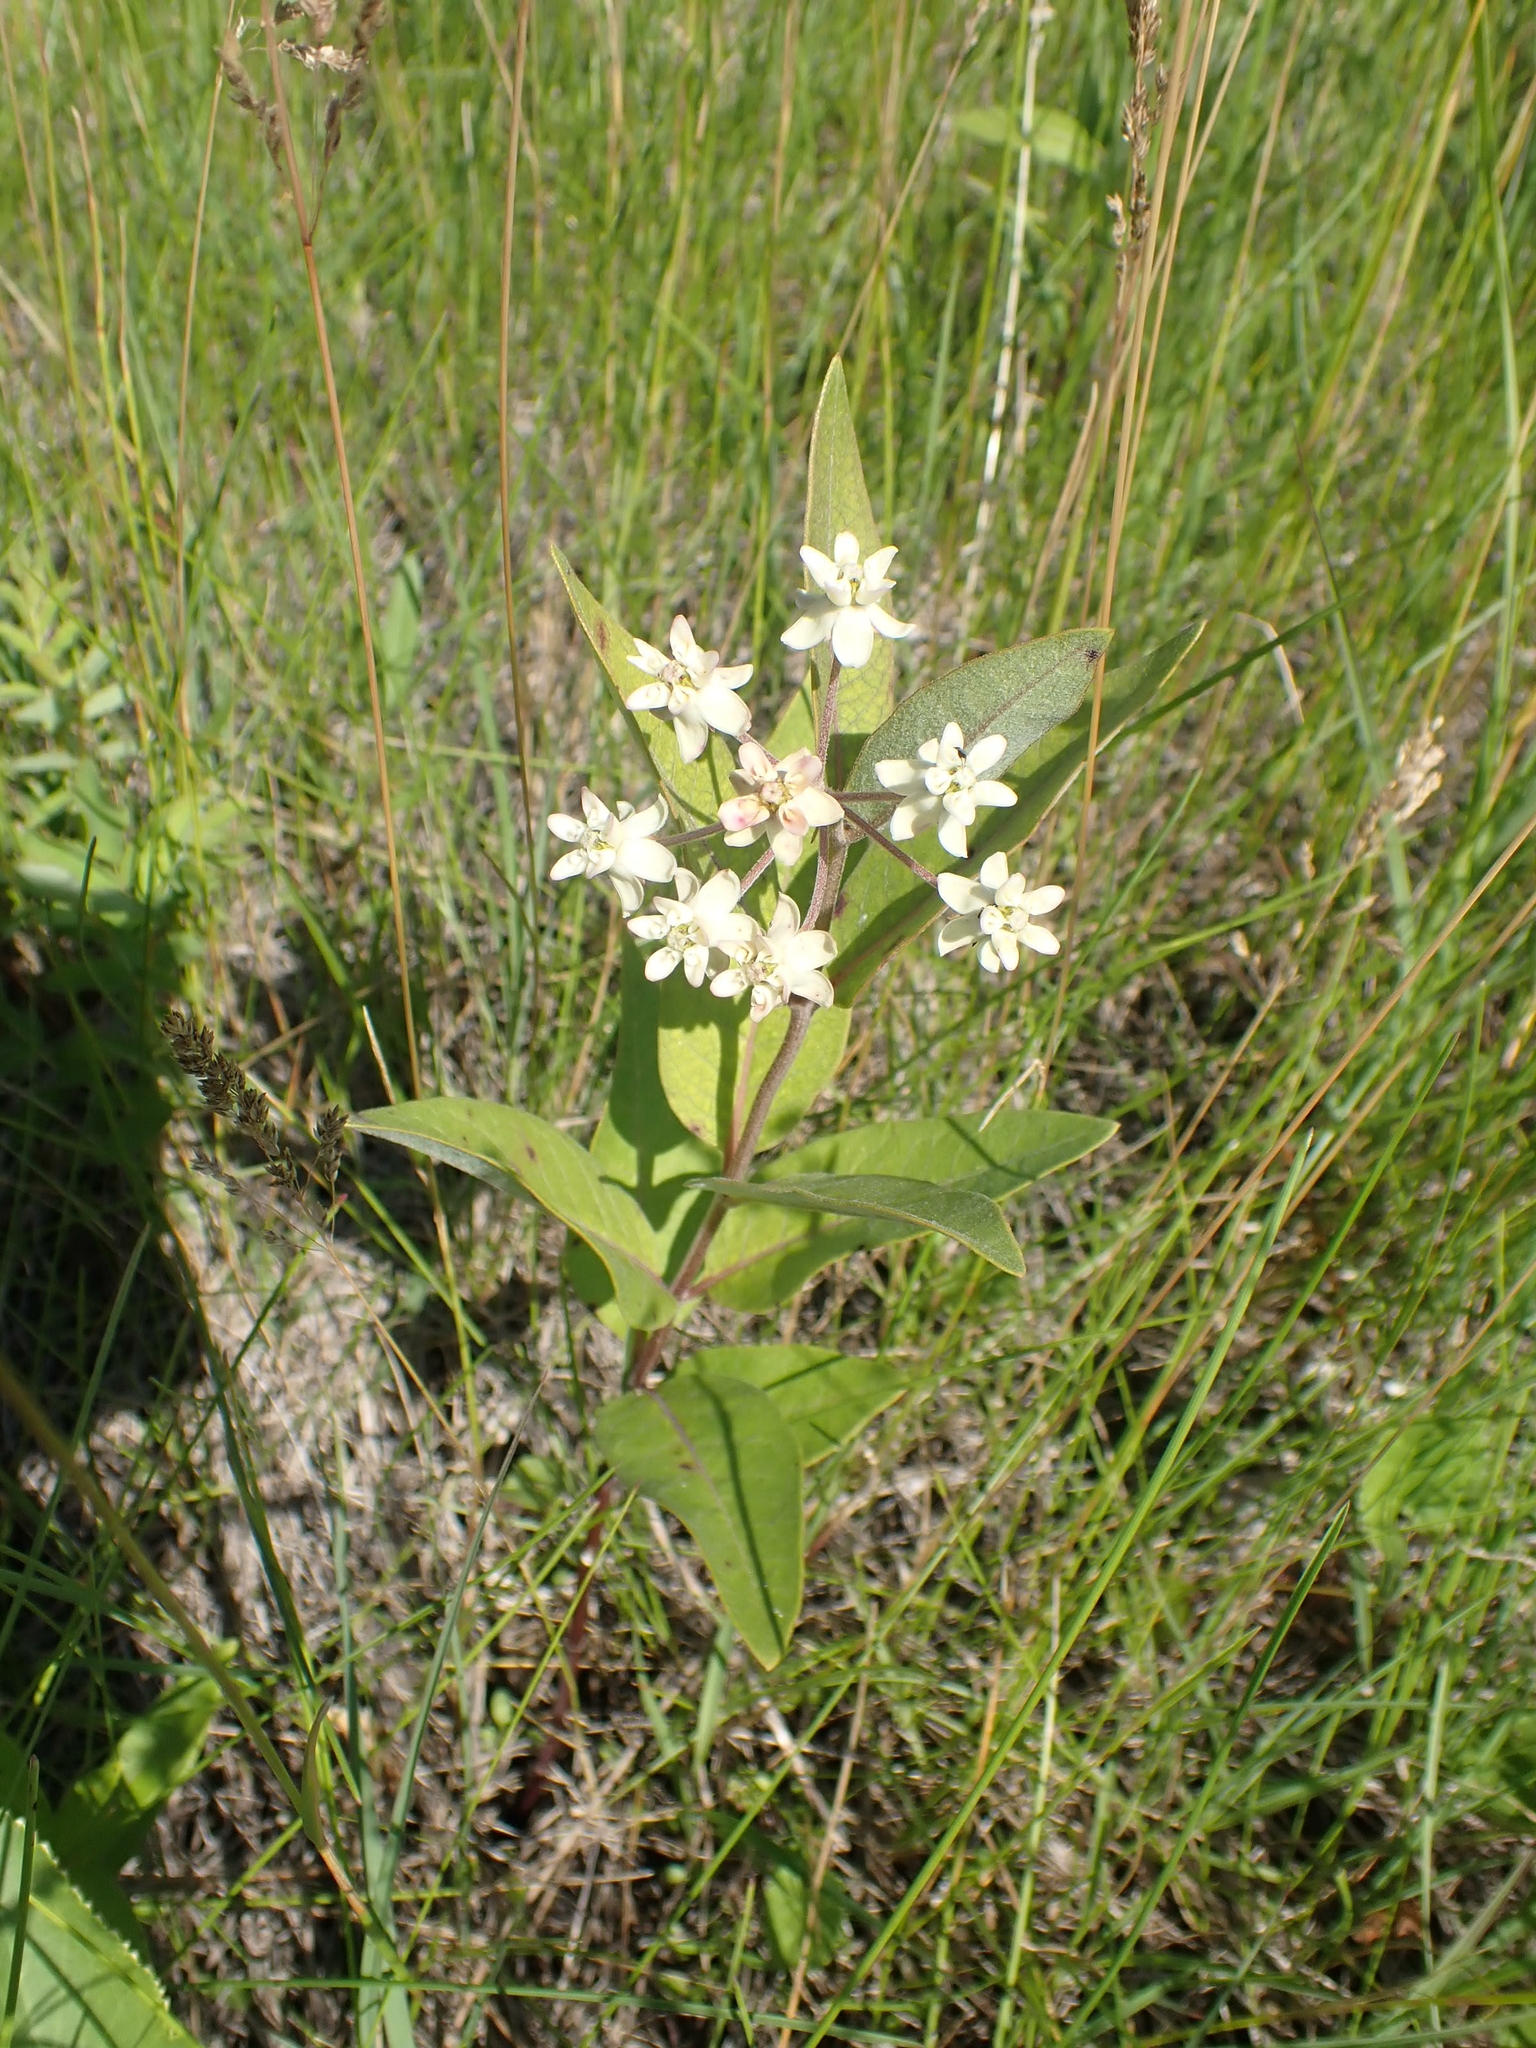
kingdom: Plantae
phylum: Tracheophyta
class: Magnoliopsida
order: Gentianales
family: Apocynaceae
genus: Asclepias
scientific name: Asclepias ovalifolia
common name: Dwarf milkweed
